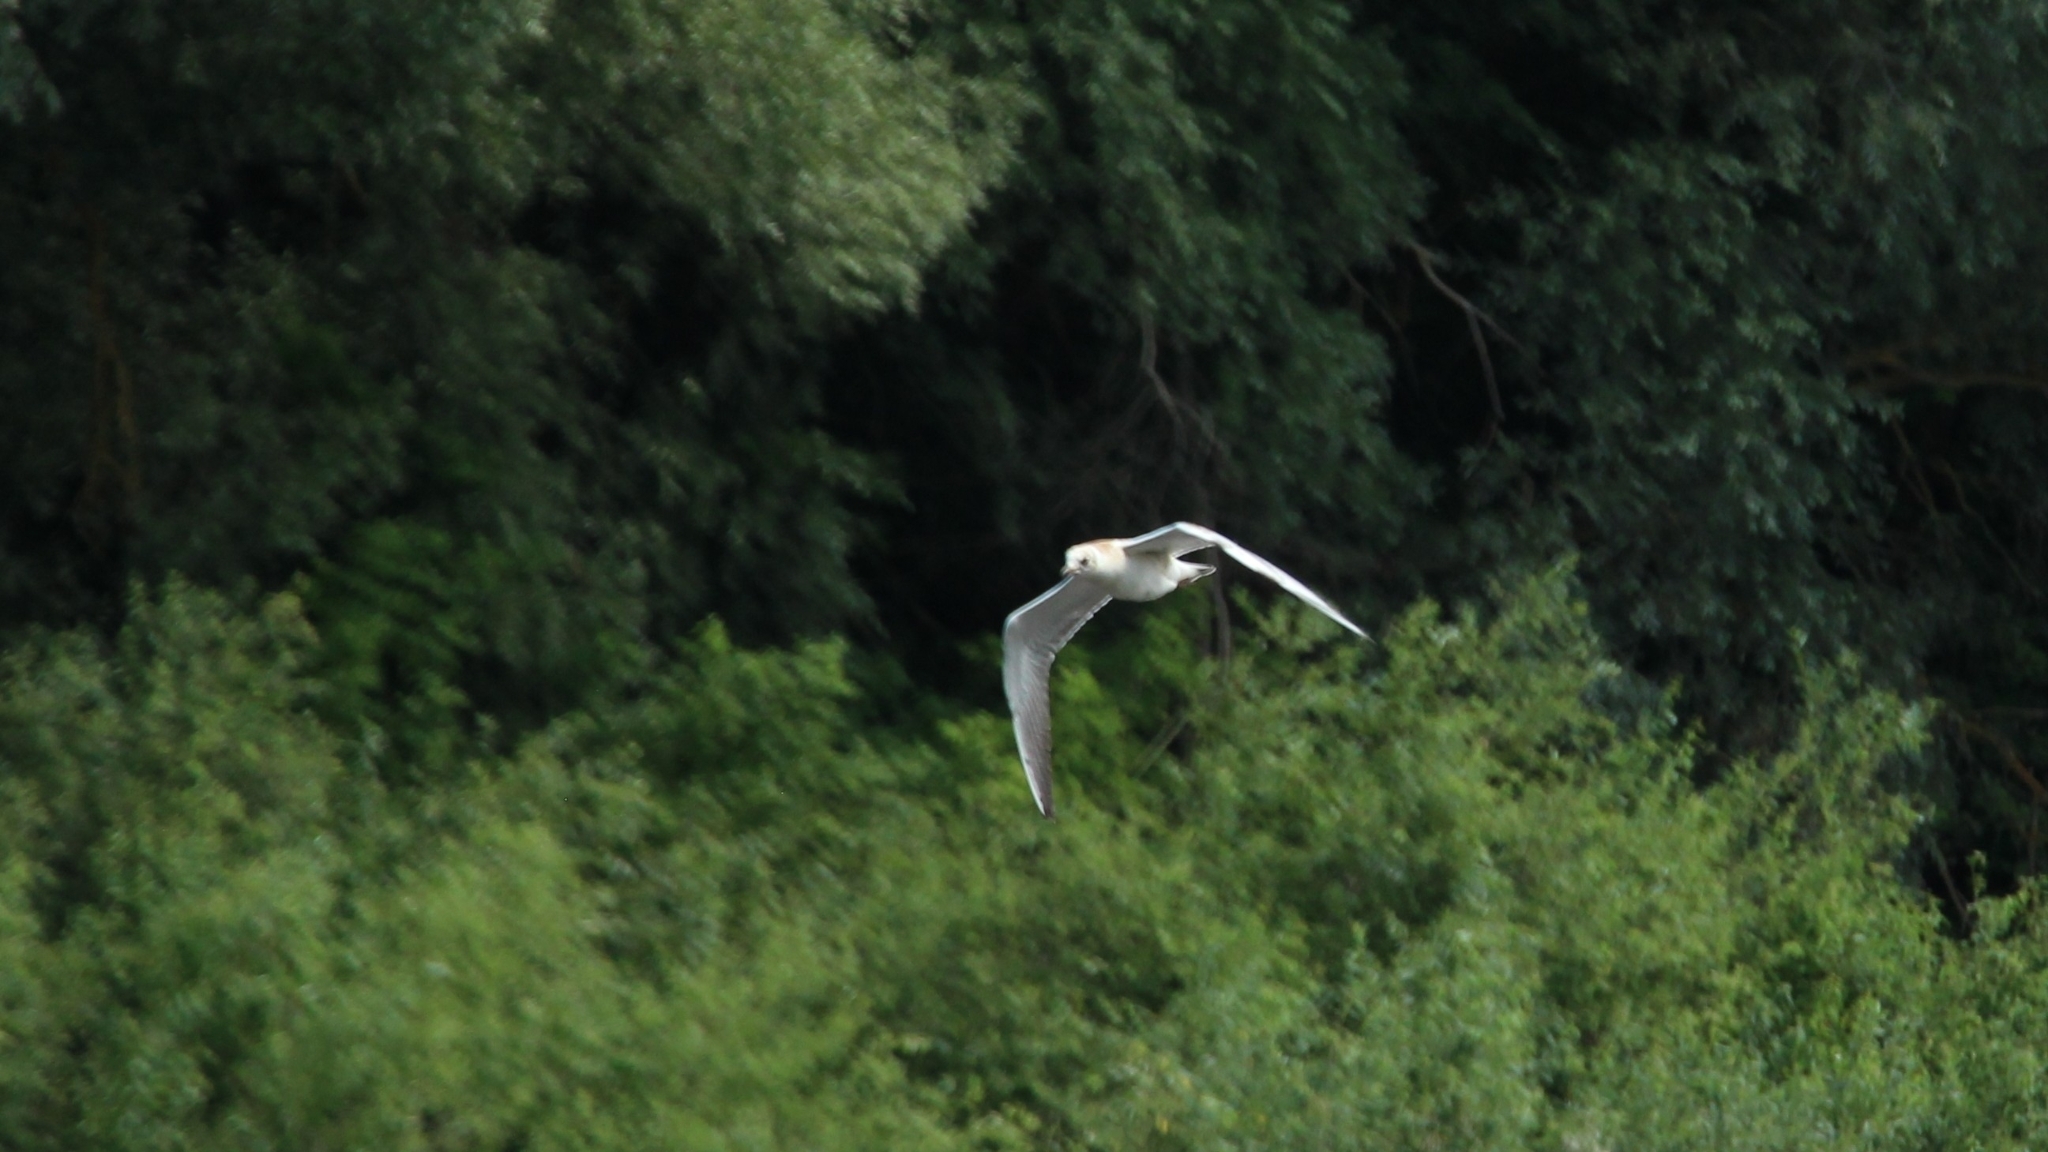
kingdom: Animalia
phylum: Chordata
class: Aves
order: Charadriiformes
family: Laridae
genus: Chroicocephalus
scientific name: Chroicocephalus ridibundus
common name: Black-headed gull
